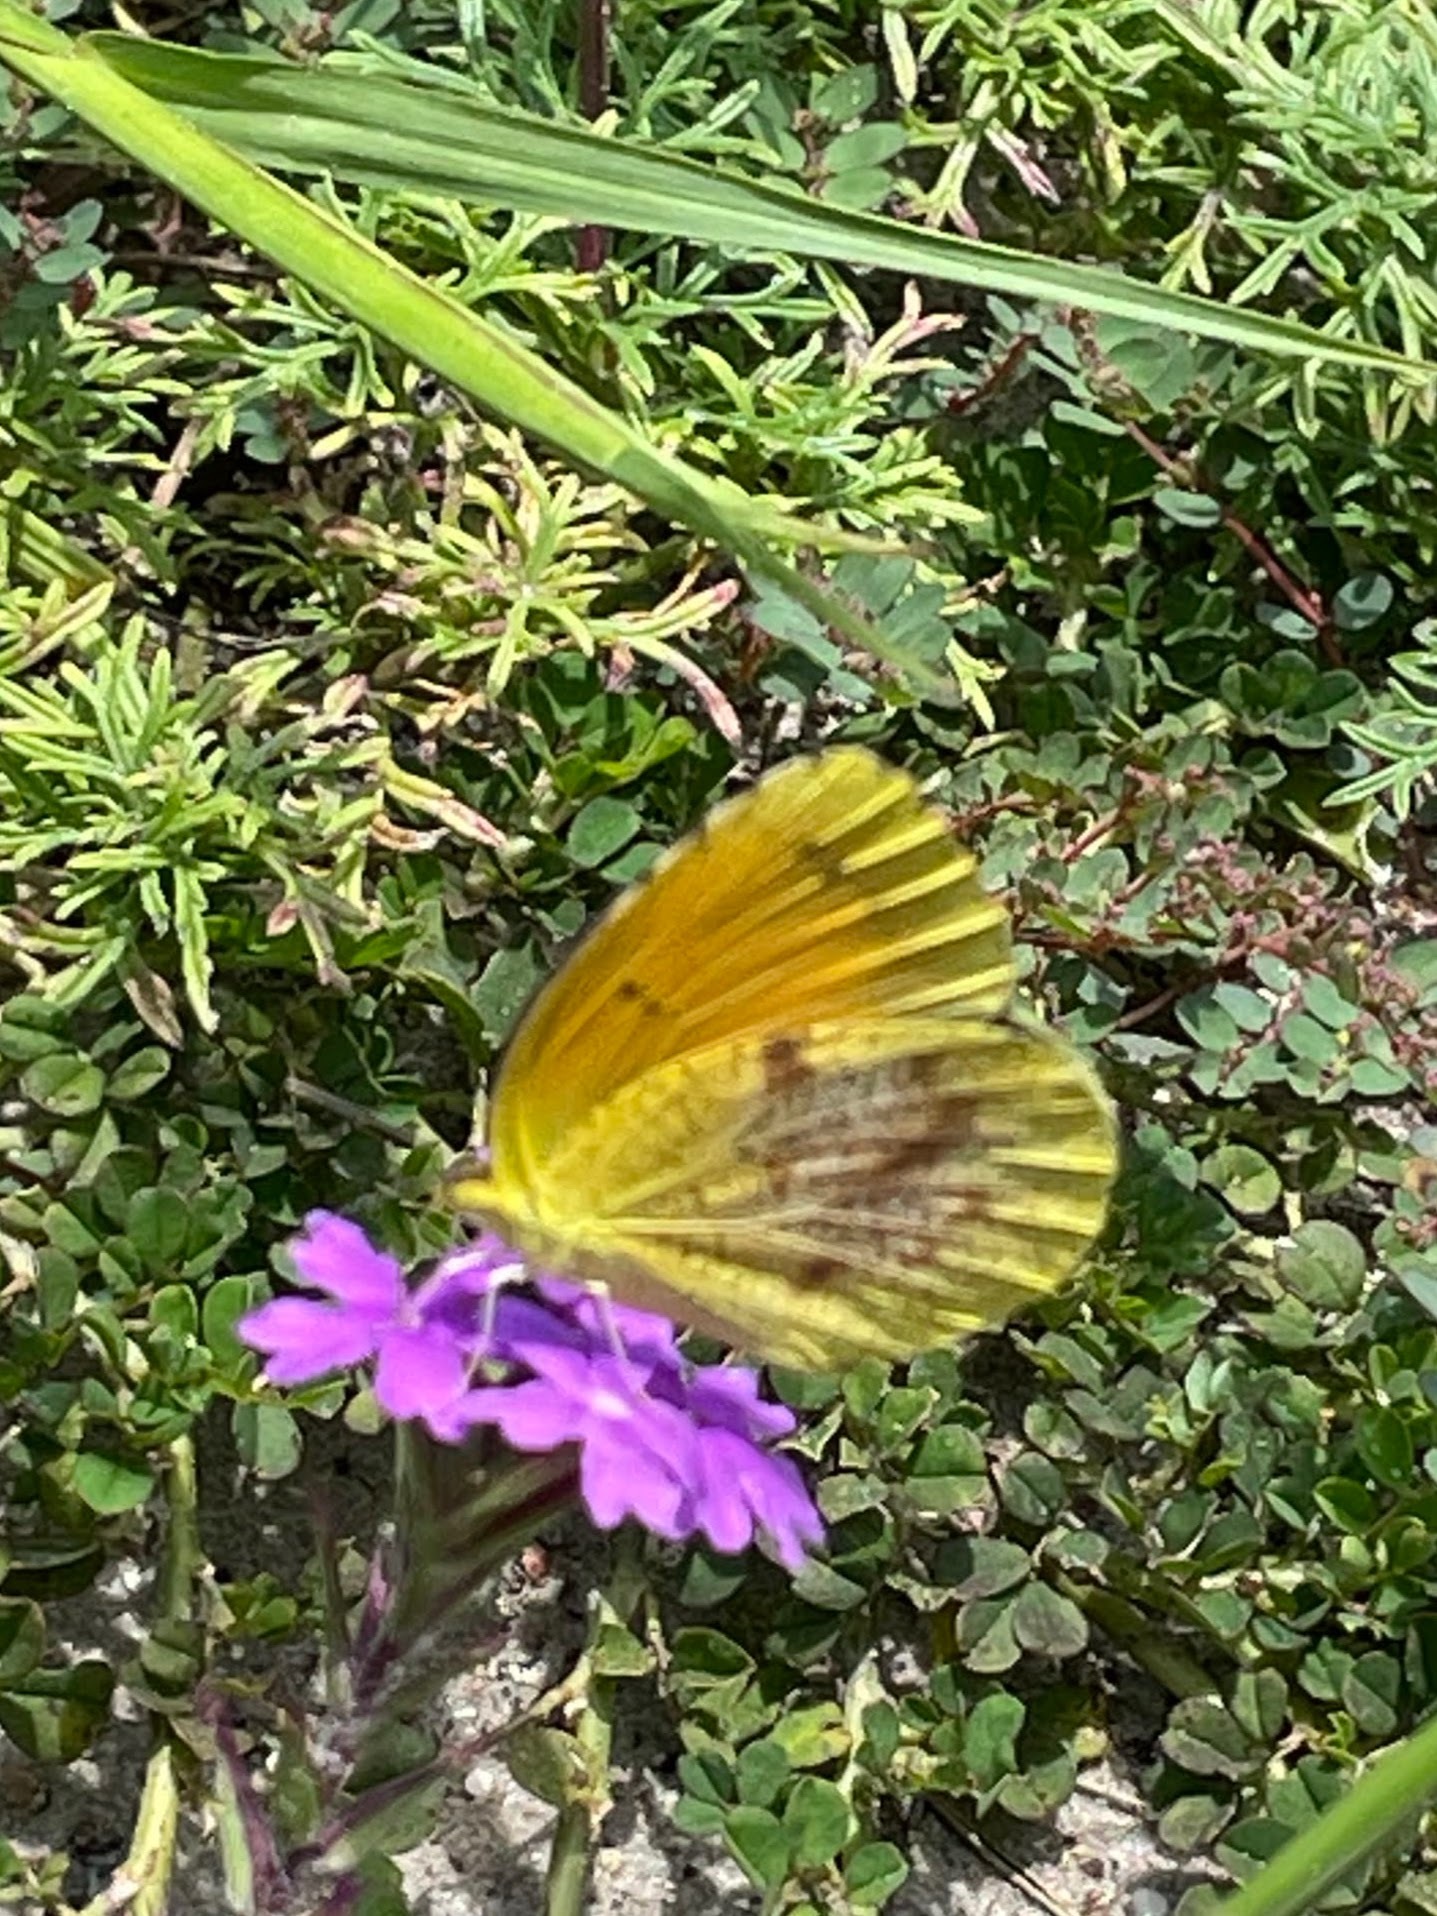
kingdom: Animalia
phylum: Arthropoda
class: Insecta
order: Lepidoptera
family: Pieridae
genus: Abaeis
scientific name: Abaeis nicippe
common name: Sleepy orange
